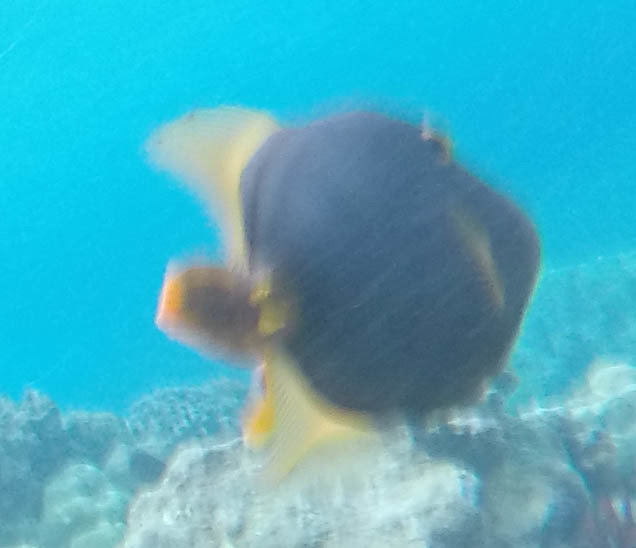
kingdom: Animalia
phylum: Chordata
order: Tetraodontiformes
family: Monacanthidae
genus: Cantherhines
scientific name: Cantherhines dumerilii
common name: Barred filefish
